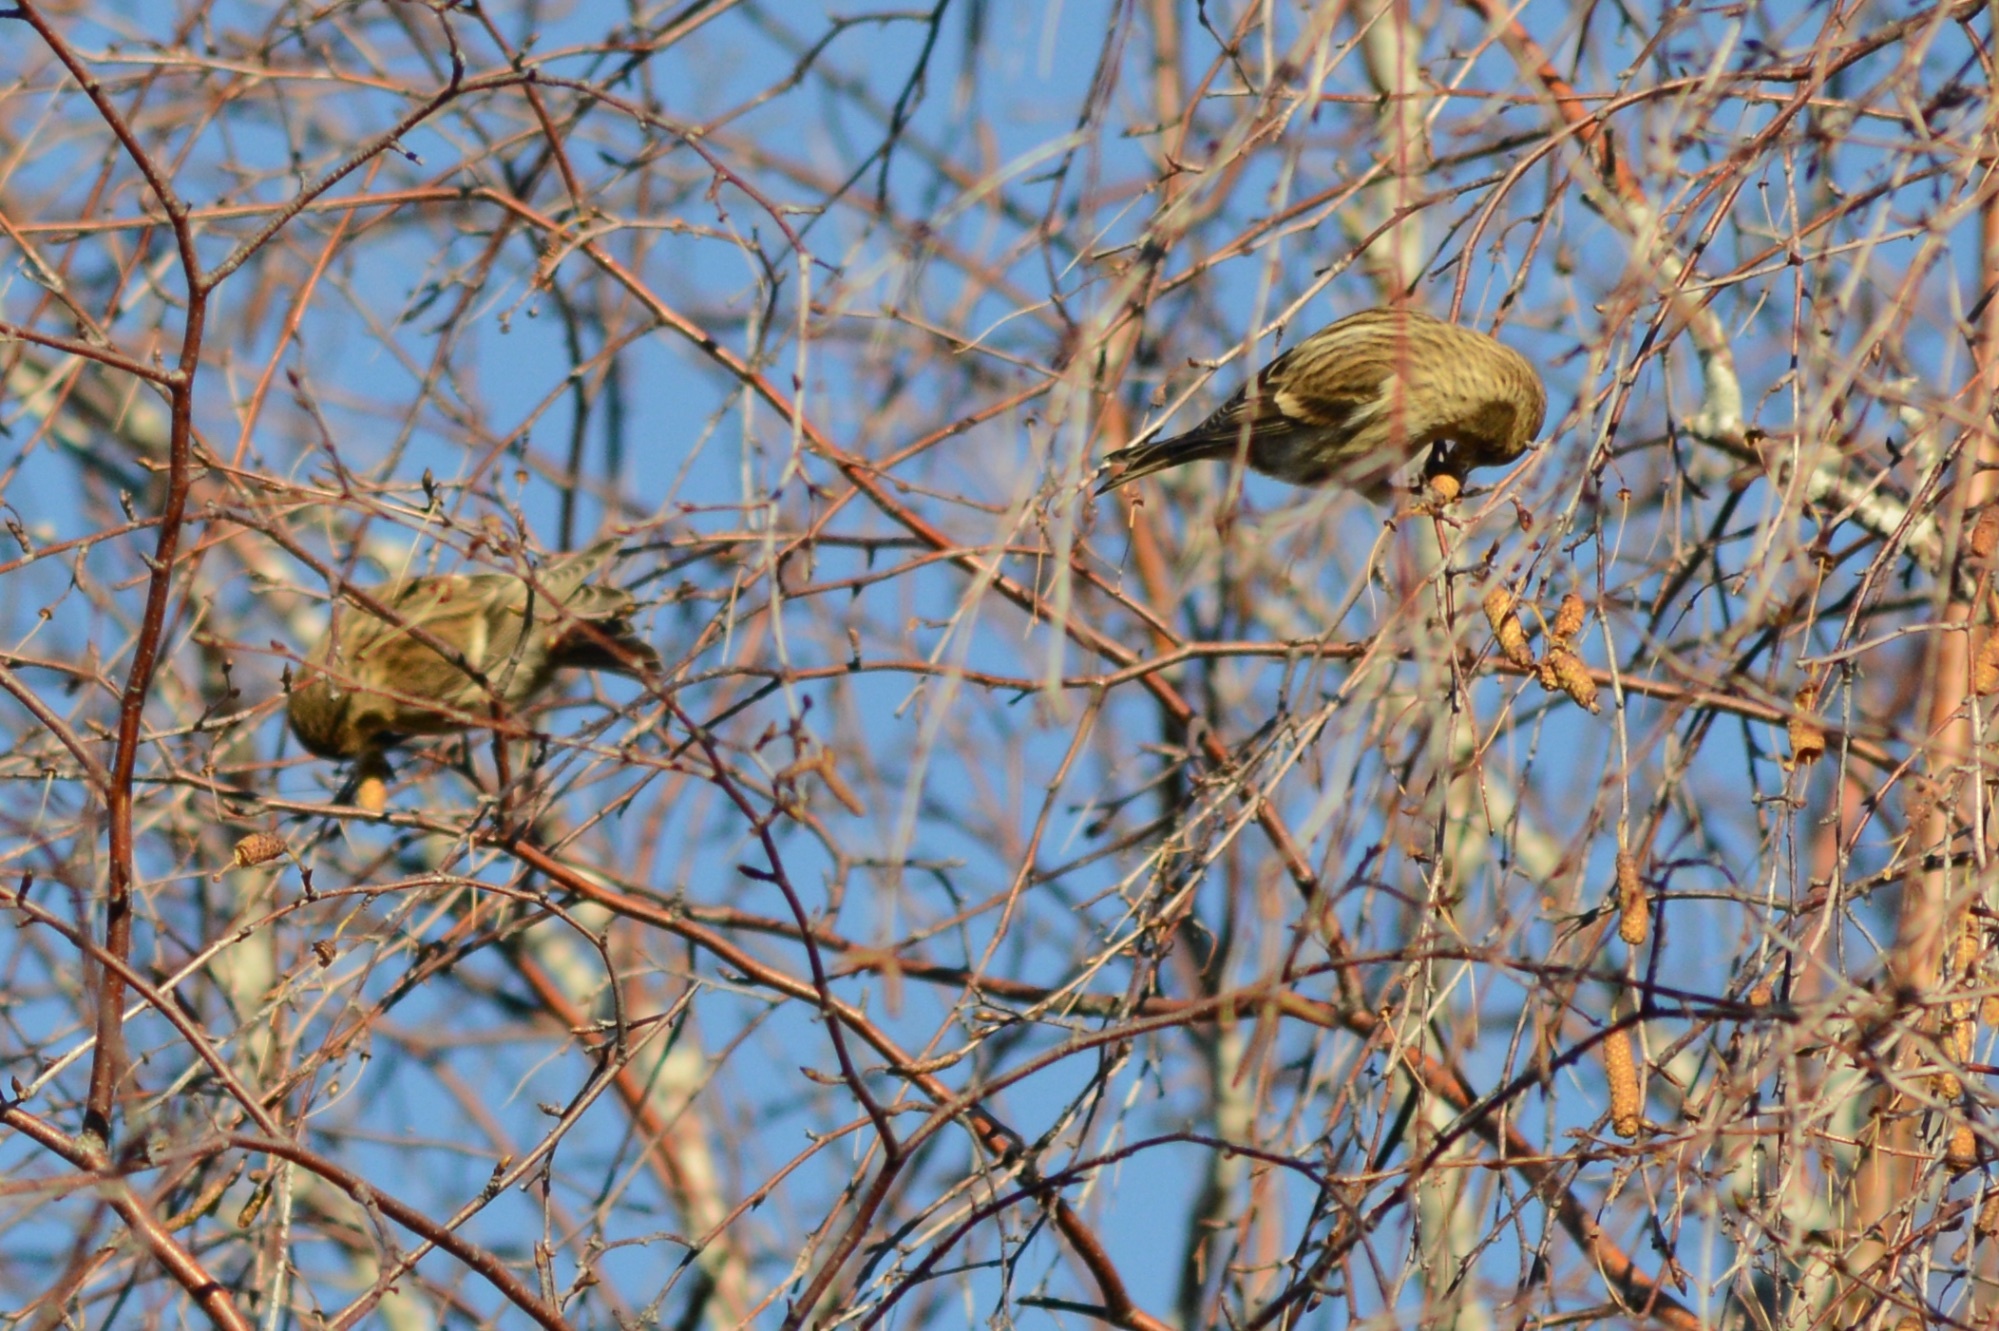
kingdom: Animalia
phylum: Chordata
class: Aves
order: Passeriformes
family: Fringillidae
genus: Acanthis
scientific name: Acanthis flammea
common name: Common redpoll
